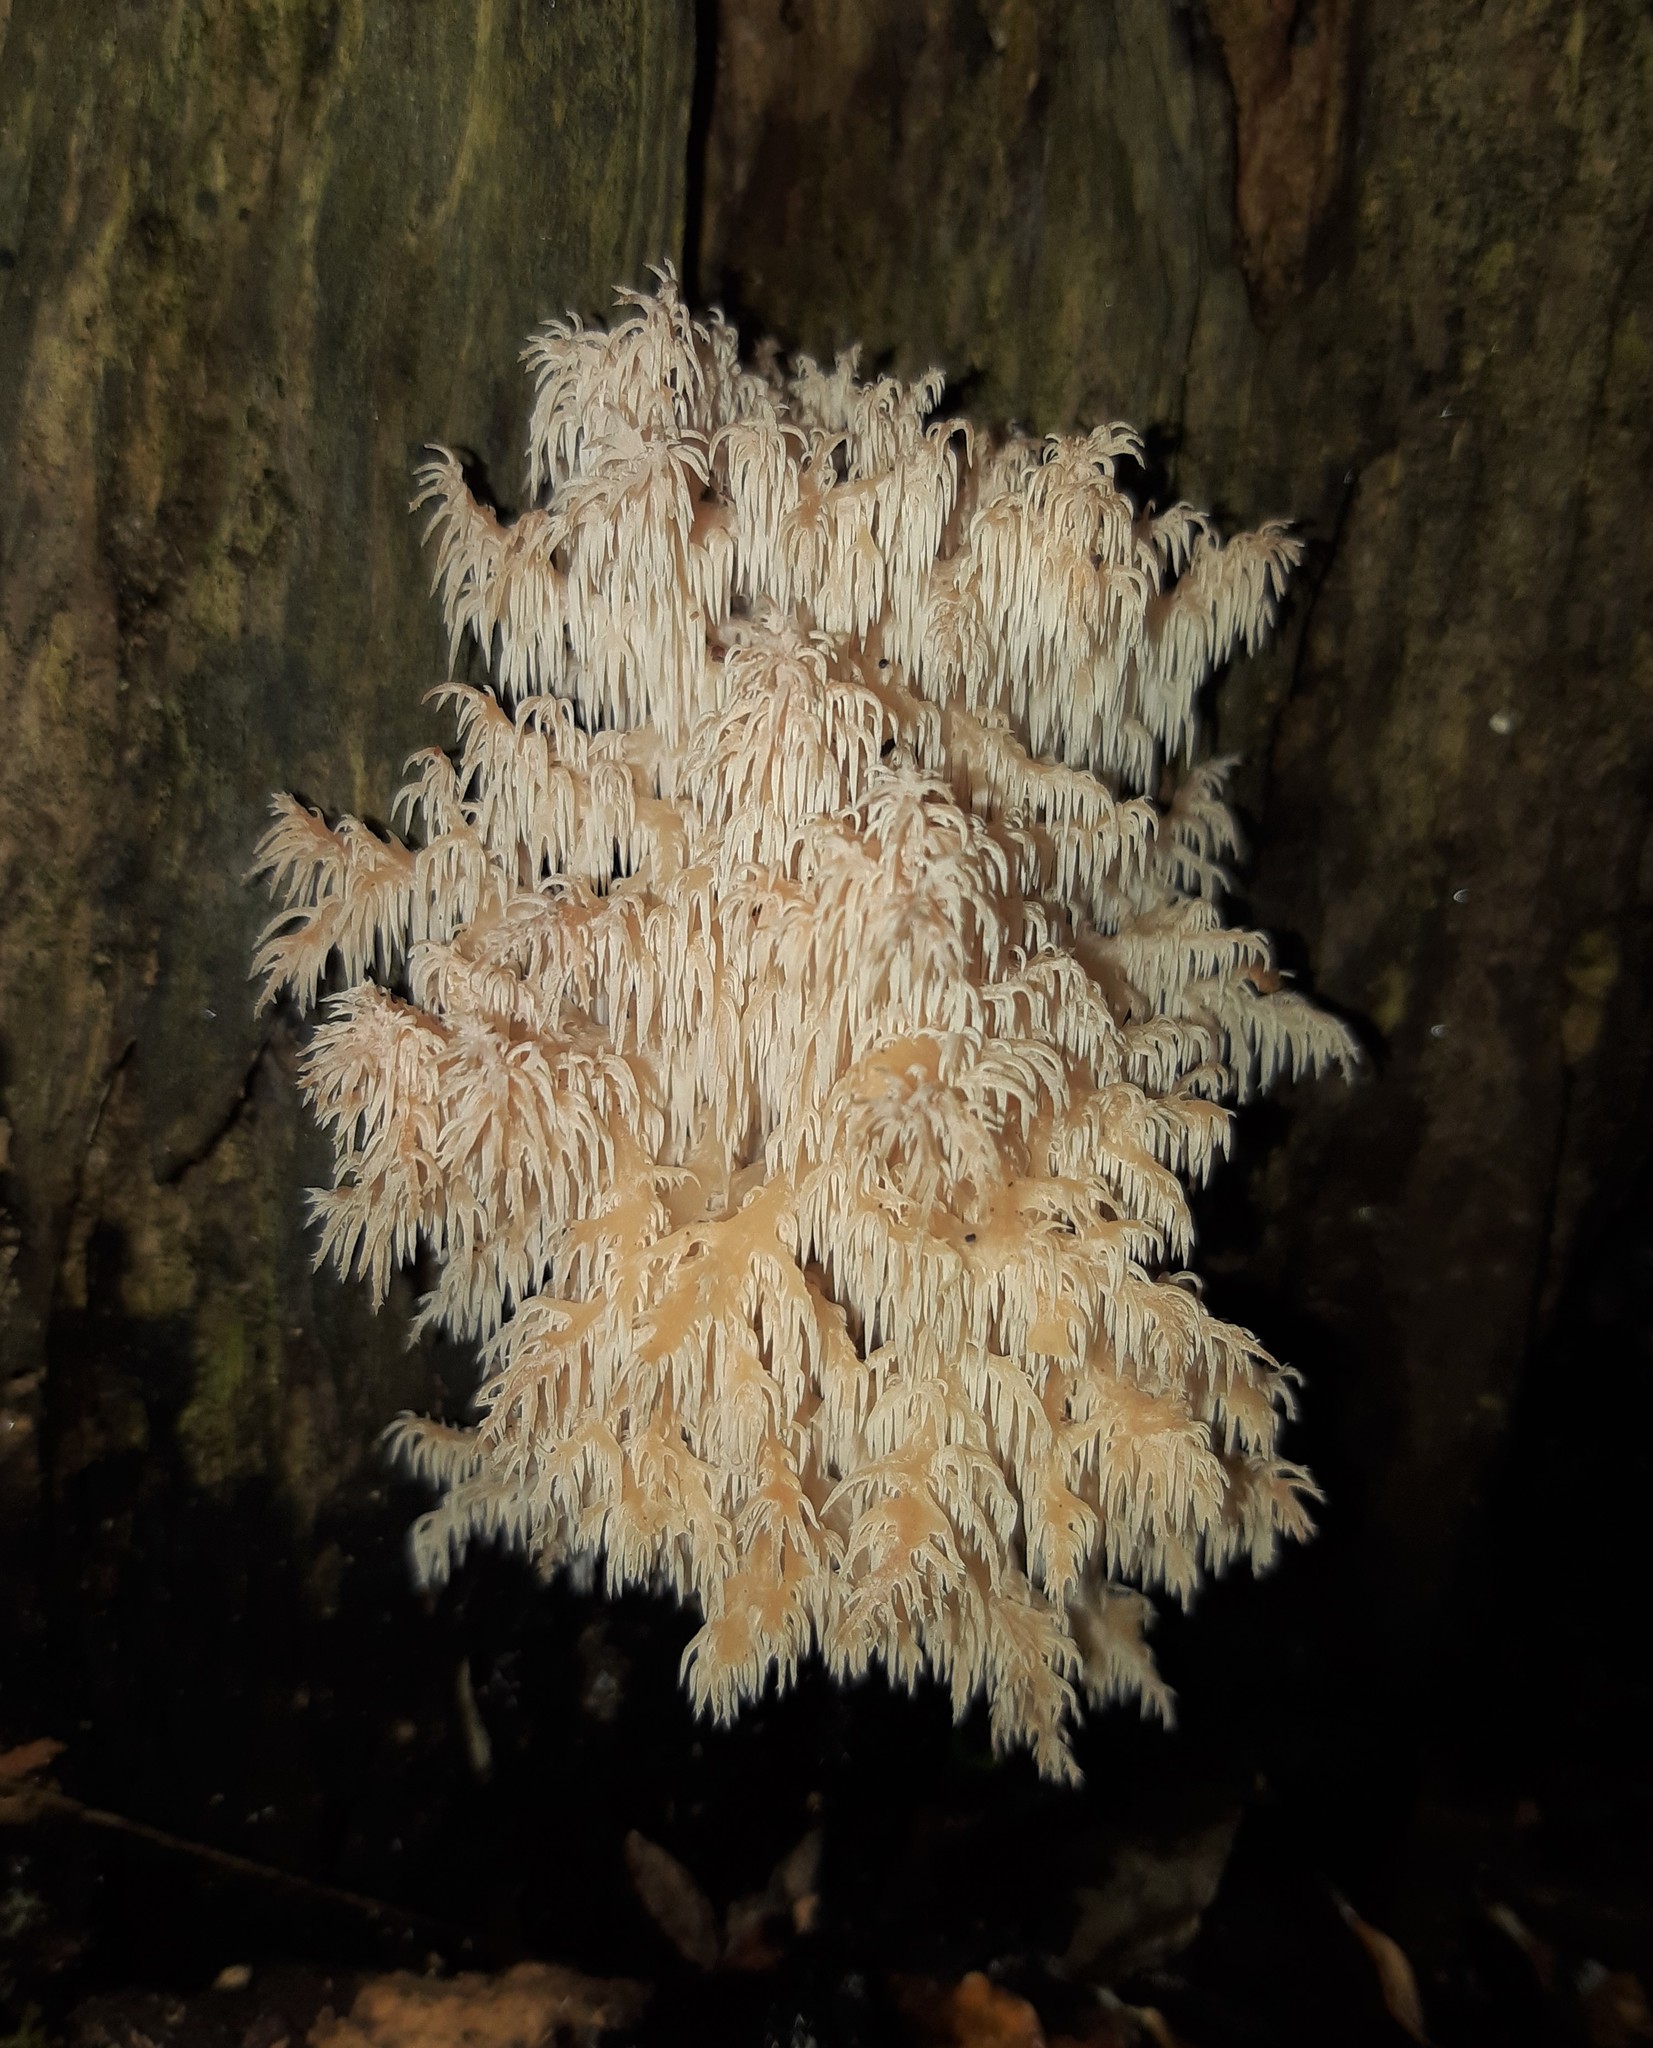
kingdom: Fungi
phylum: Basidiomycota
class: Agaricomycetes
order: Russulales
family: Hericiaceae
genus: Hericium
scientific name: Hericium novae-zealandiae
